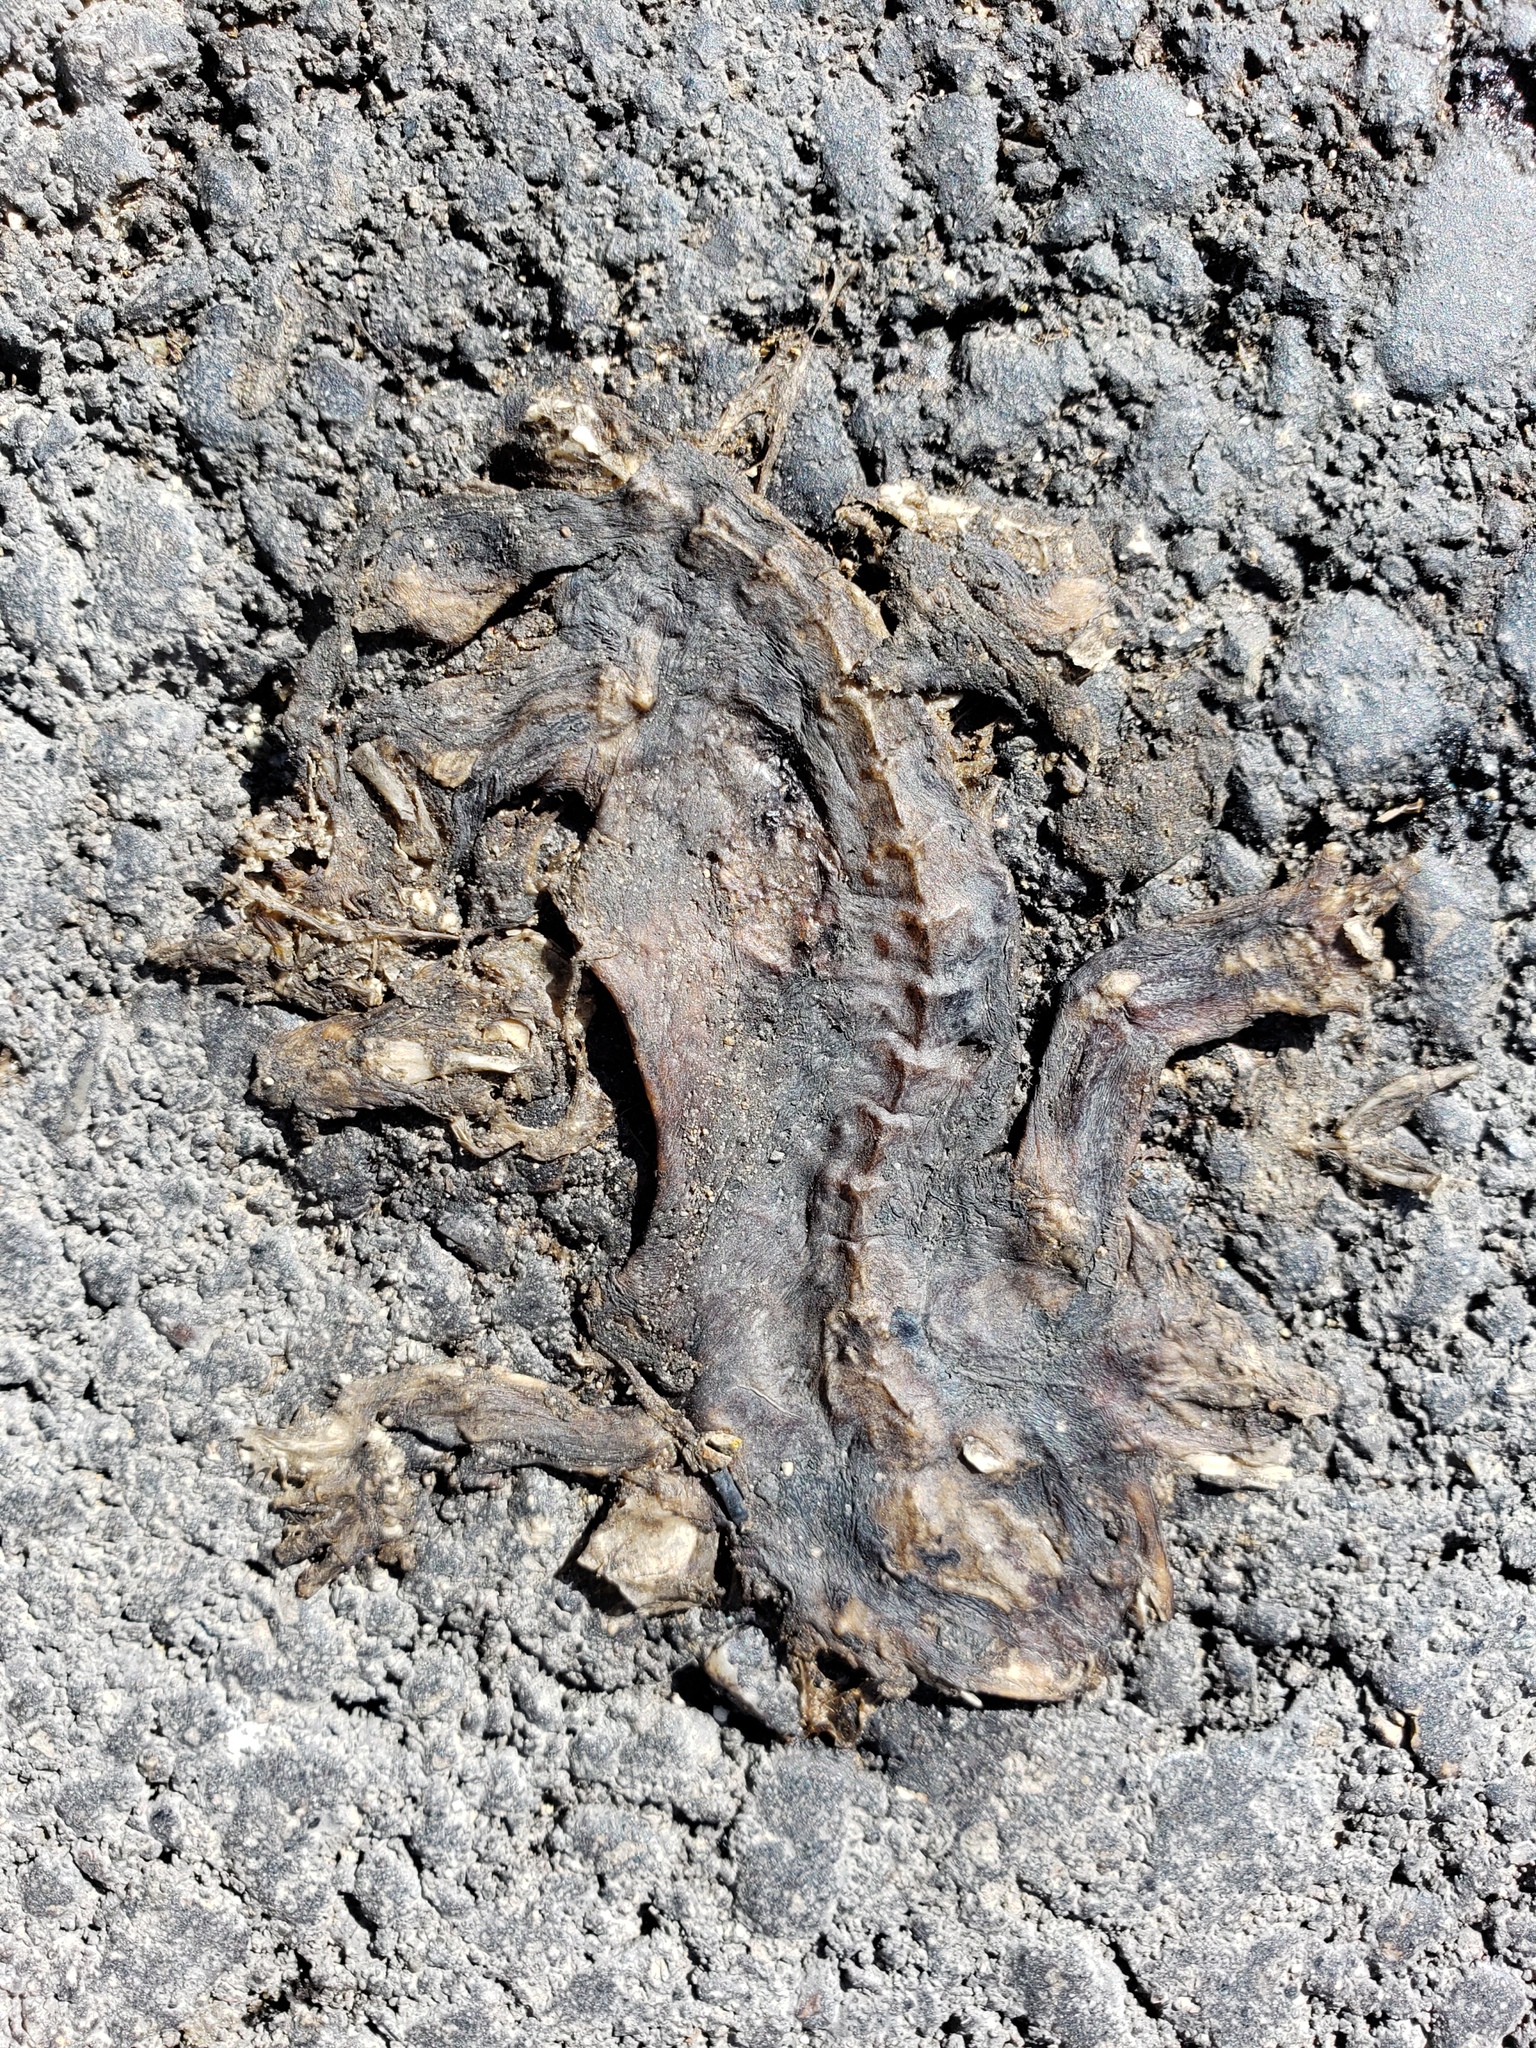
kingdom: Animalia
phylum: Chordata
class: Amphibia
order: Caudata
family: Salamandridae
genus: Taricha
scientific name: Taricha
